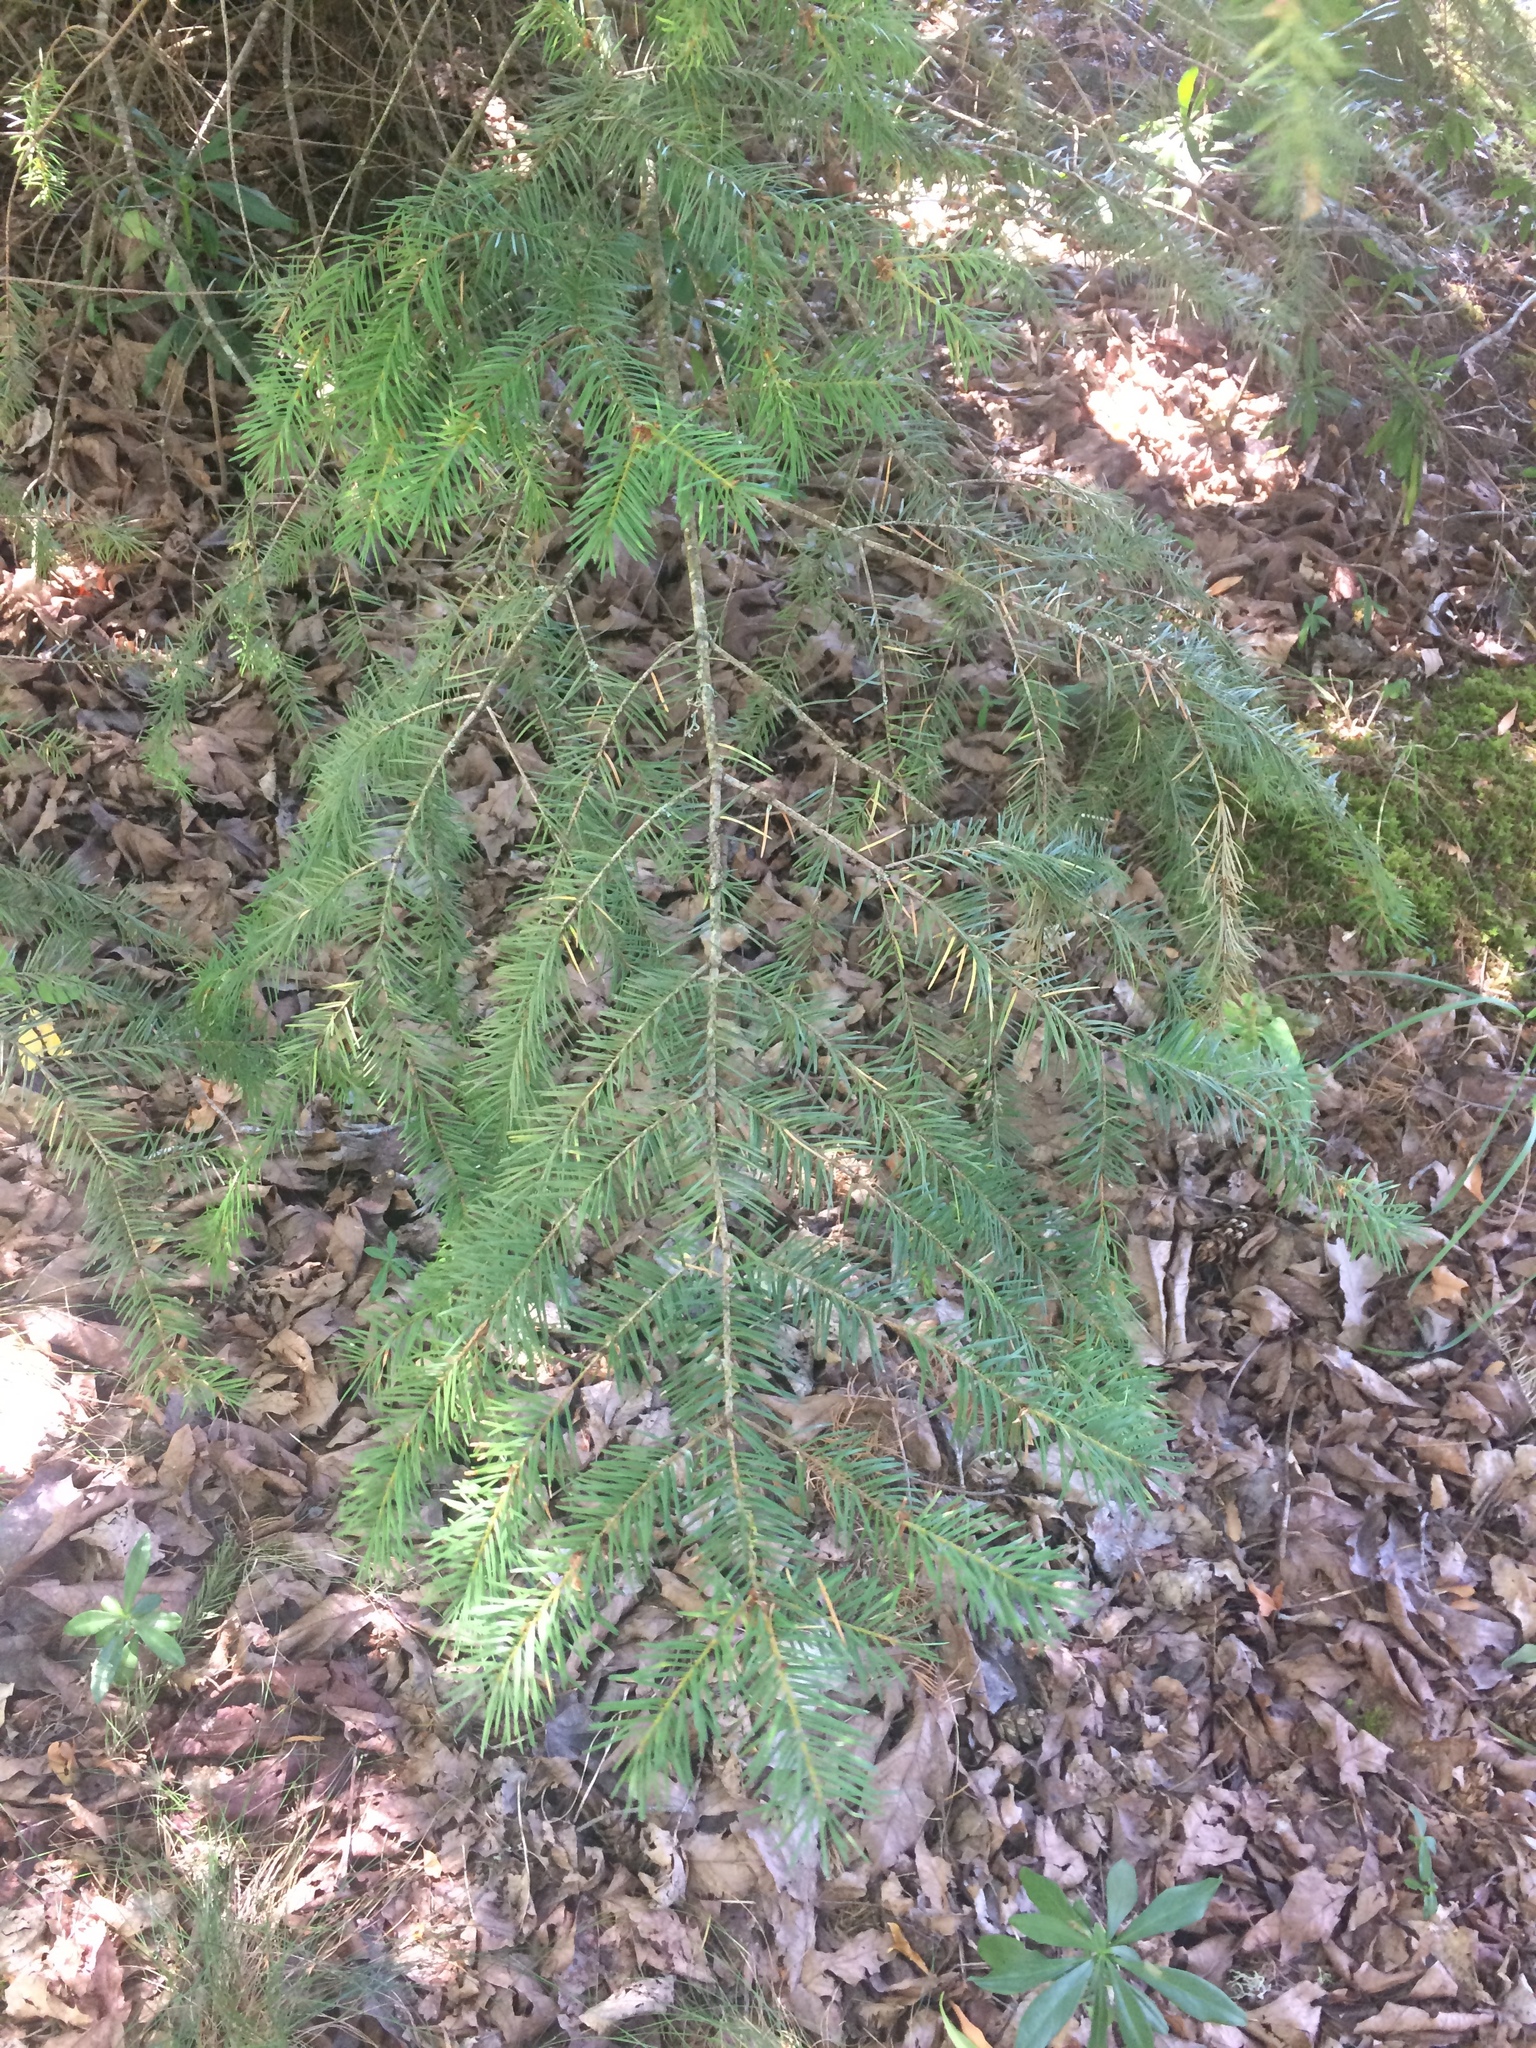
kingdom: Plantae
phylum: Tracheophyta
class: Pinopsida
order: Pinales
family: Pinaceae
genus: Pseudotsuga
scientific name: Pseudotsuga menziesii
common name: Douglas fir
